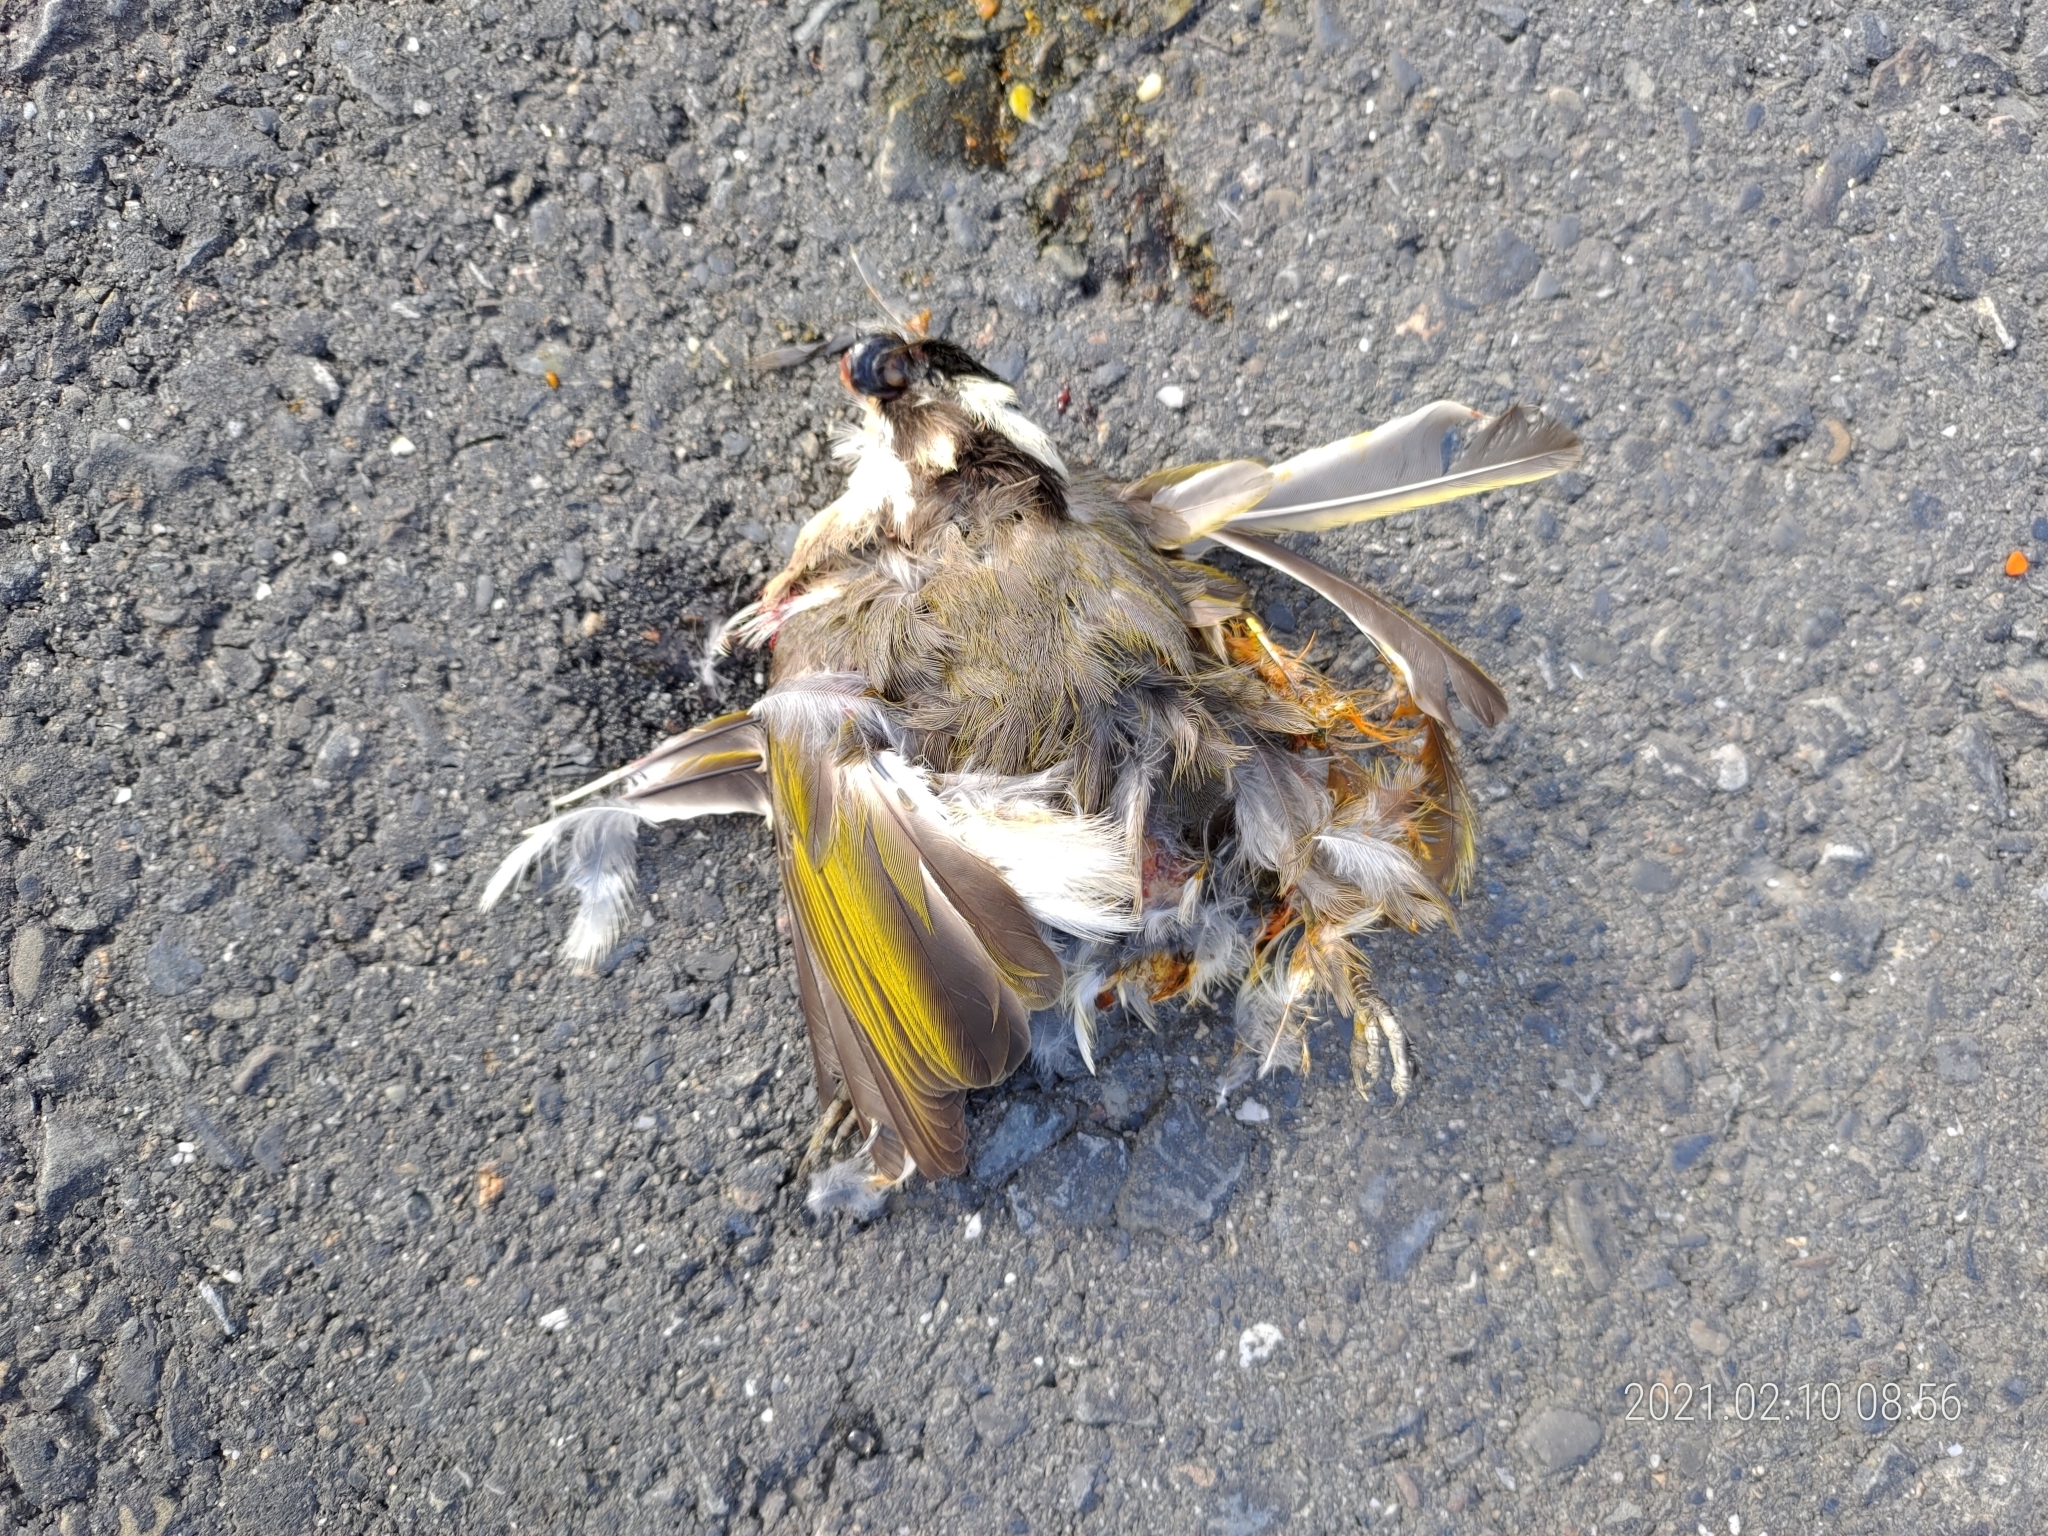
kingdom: Animalia
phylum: Chordata
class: Aves
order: Passeriformes
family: Pycnonotidae
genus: Pycnonotus
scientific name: Pycnonotus sinensis
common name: Light-vented bulbul
